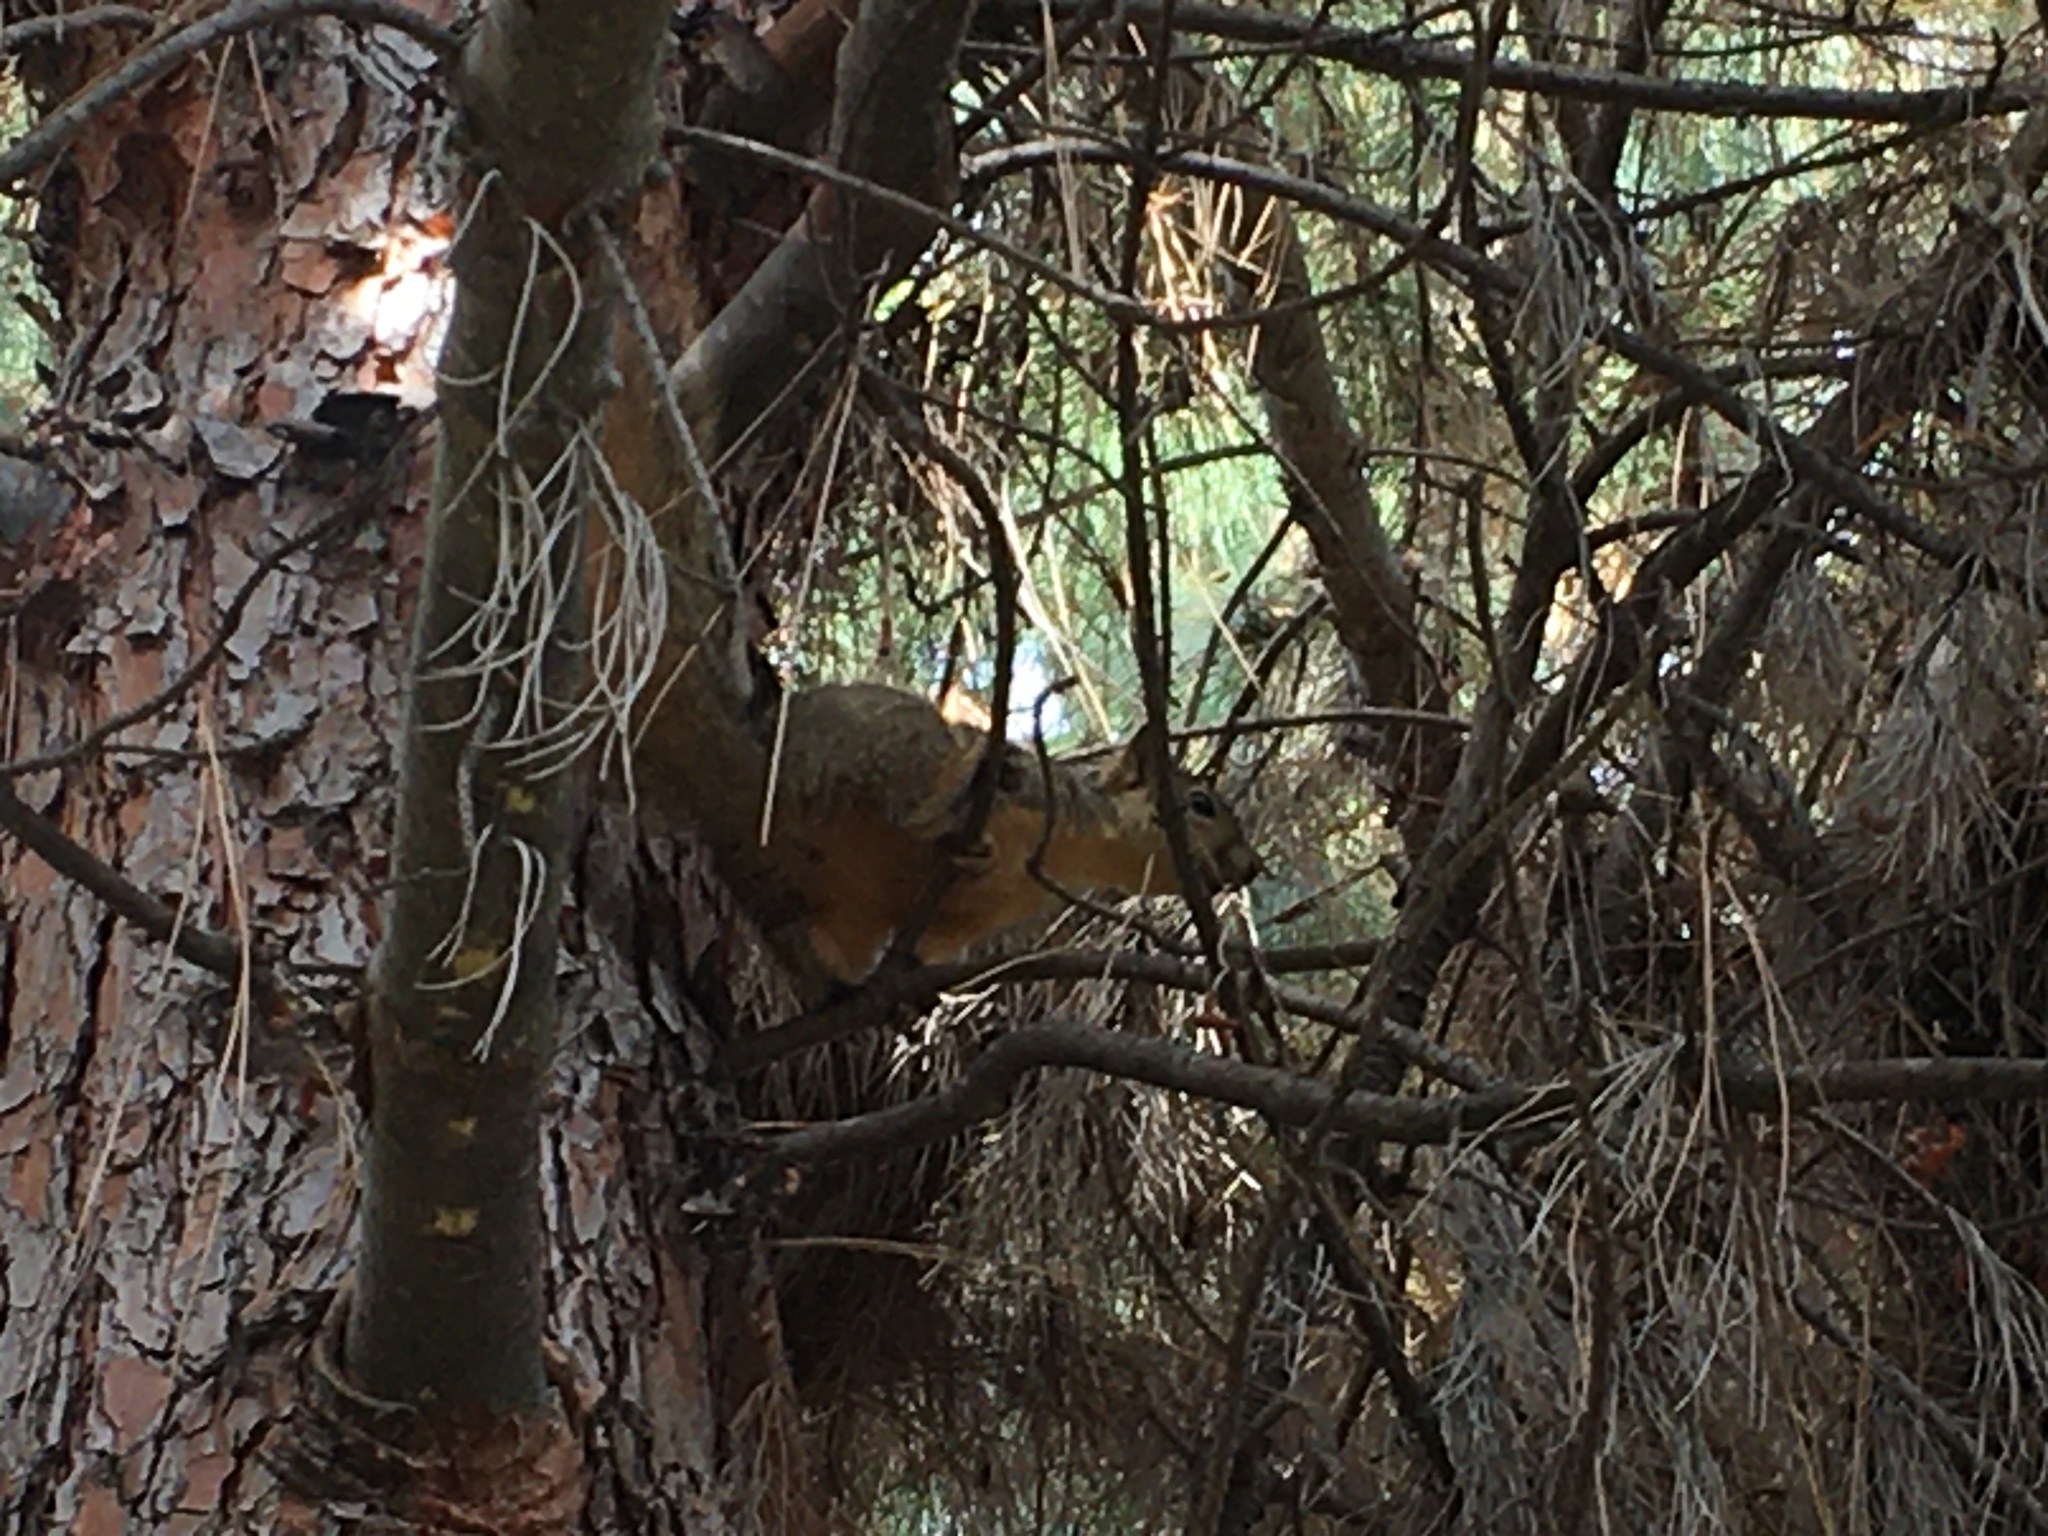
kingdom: Animalia
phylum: Chordata
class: Mammalia
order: Rodentia
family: Sciuridae
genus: Sciurus
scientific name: Sciurus niger
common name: Fox squirrel
